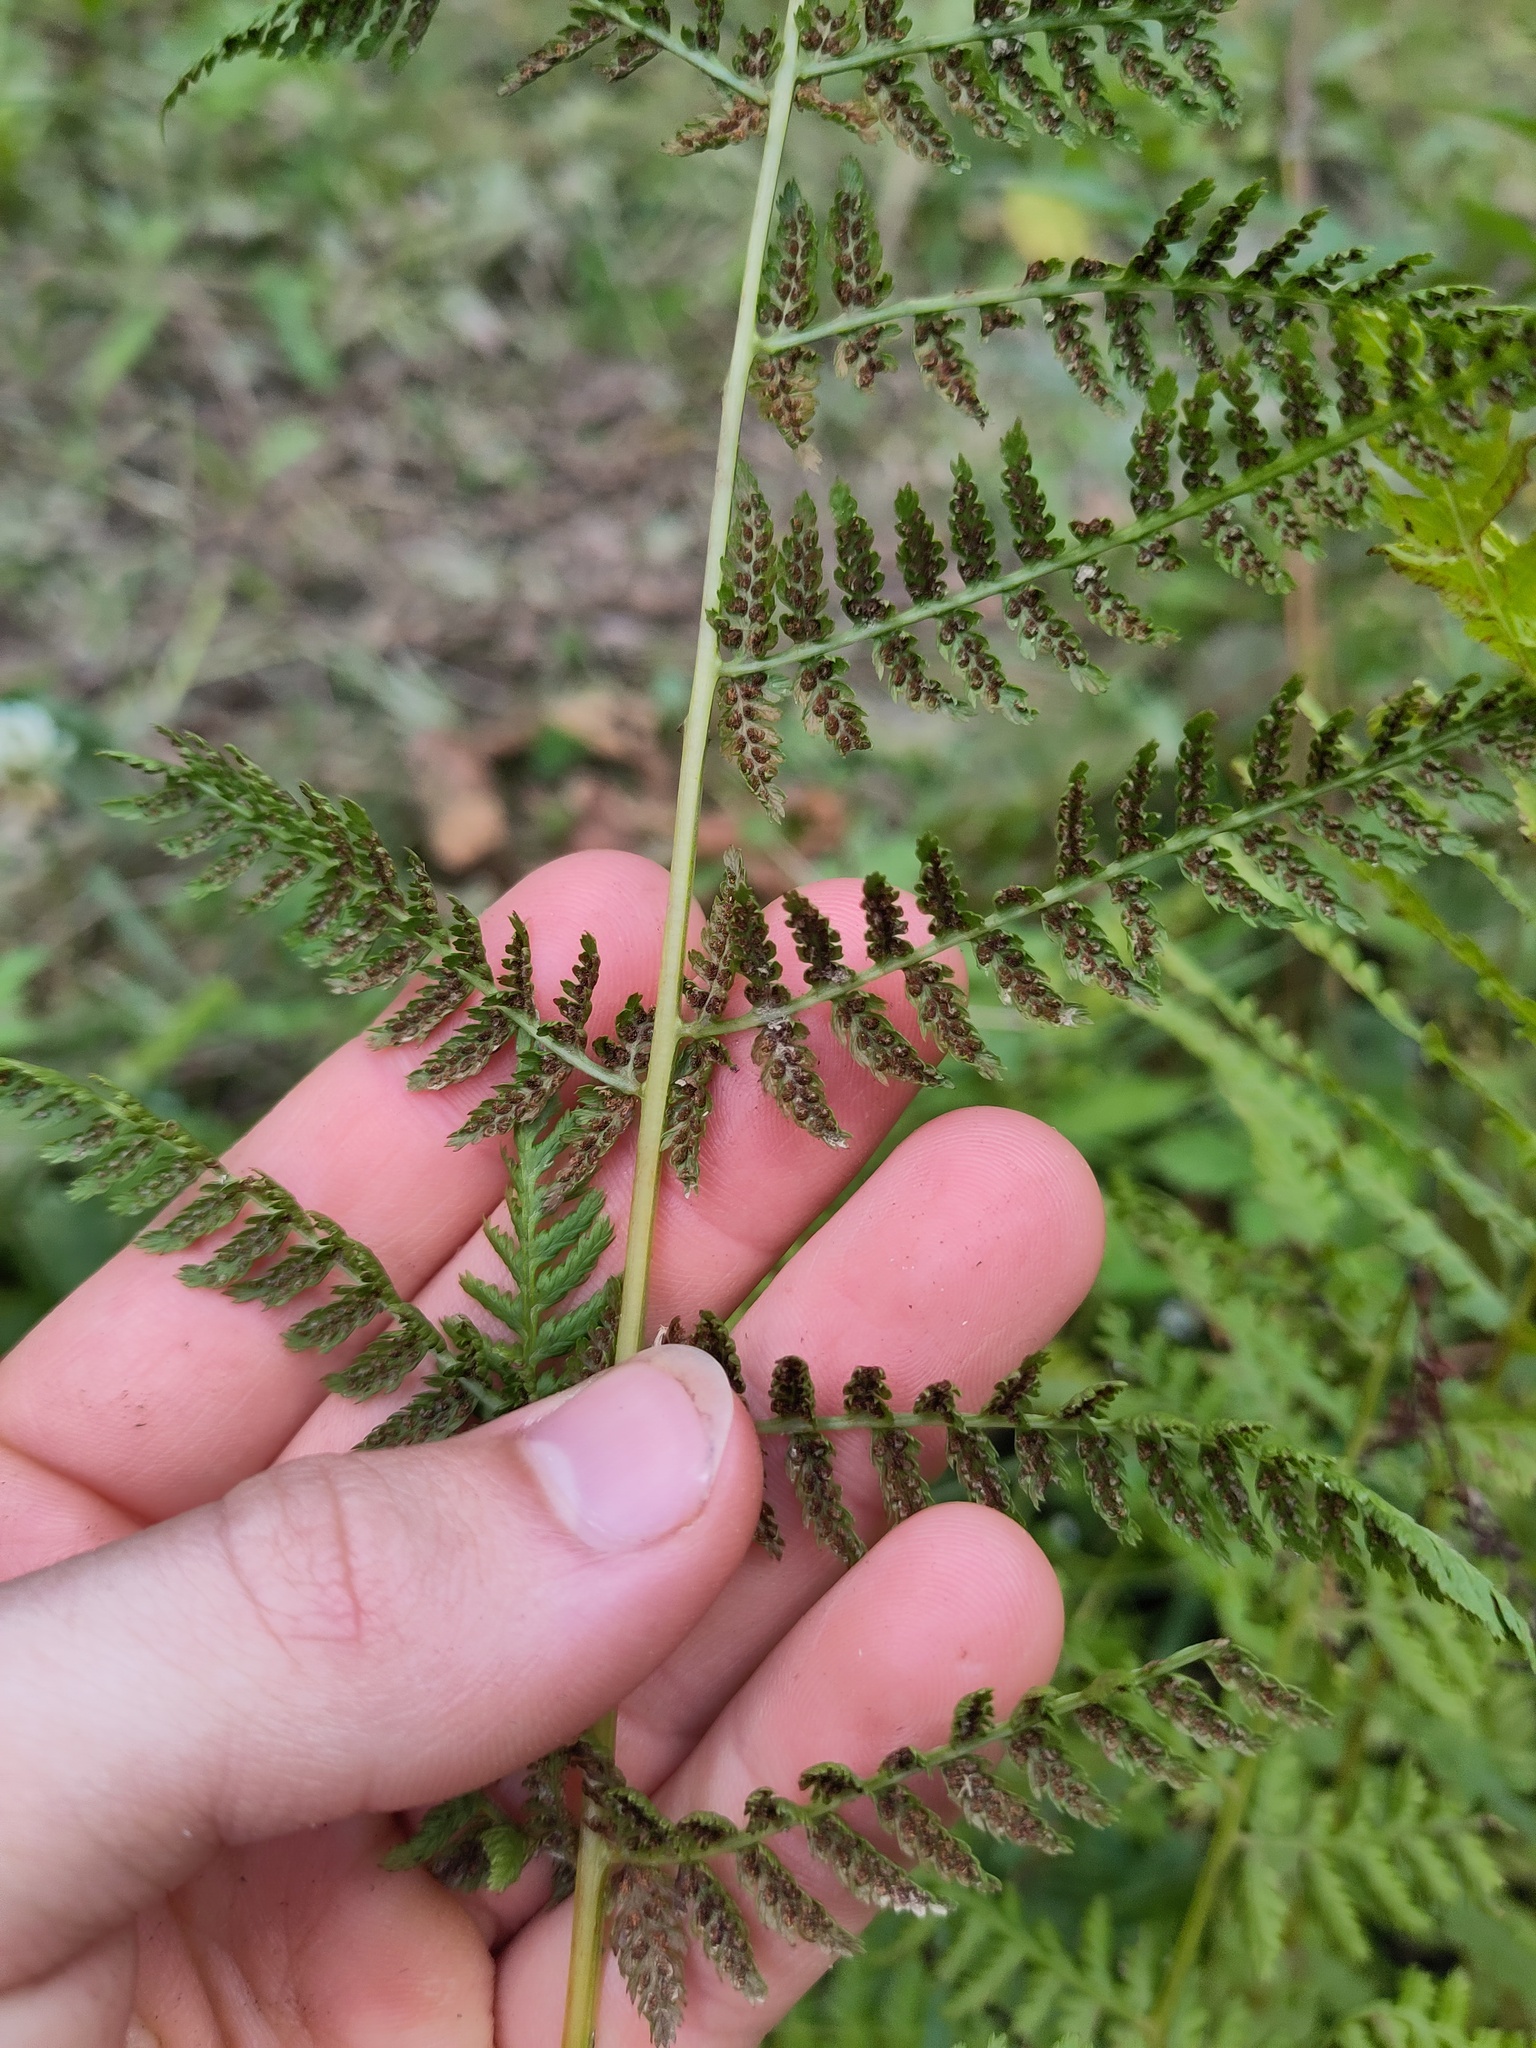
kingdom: Plantae
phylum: Tracheophyta
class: Polypodiopsida
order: Polypodiales
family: Athyriaceae
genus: Athyrium
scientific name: Athyrium filix-femina
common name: Lady fern
